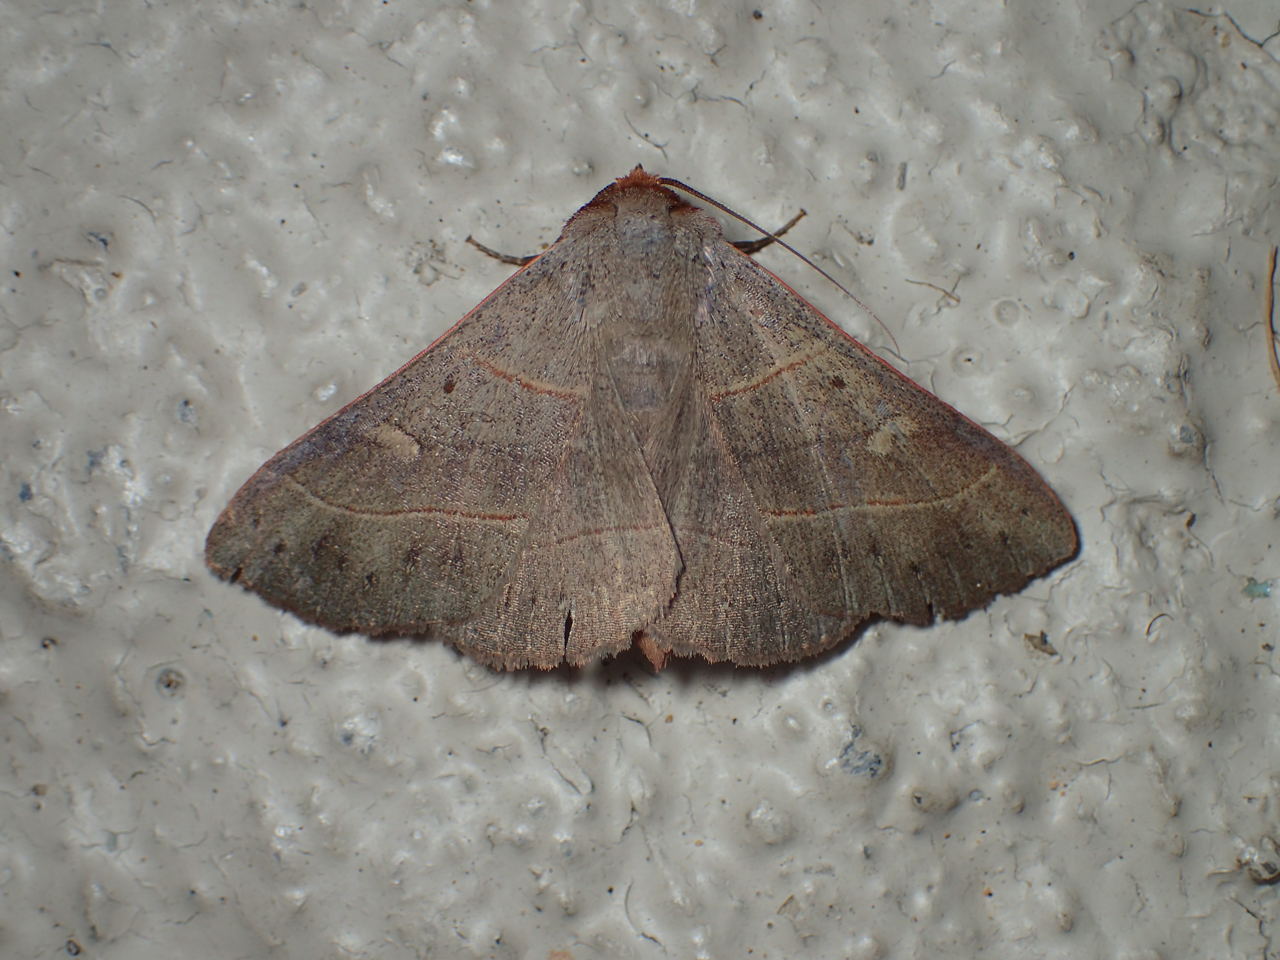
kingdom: Animalia
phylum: Arthropoda
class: Insecta
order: Lepidoptera
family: Erebidae
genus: Panopoda
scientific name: Panopoda rufimargo
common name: Red-lined panopoda moth
